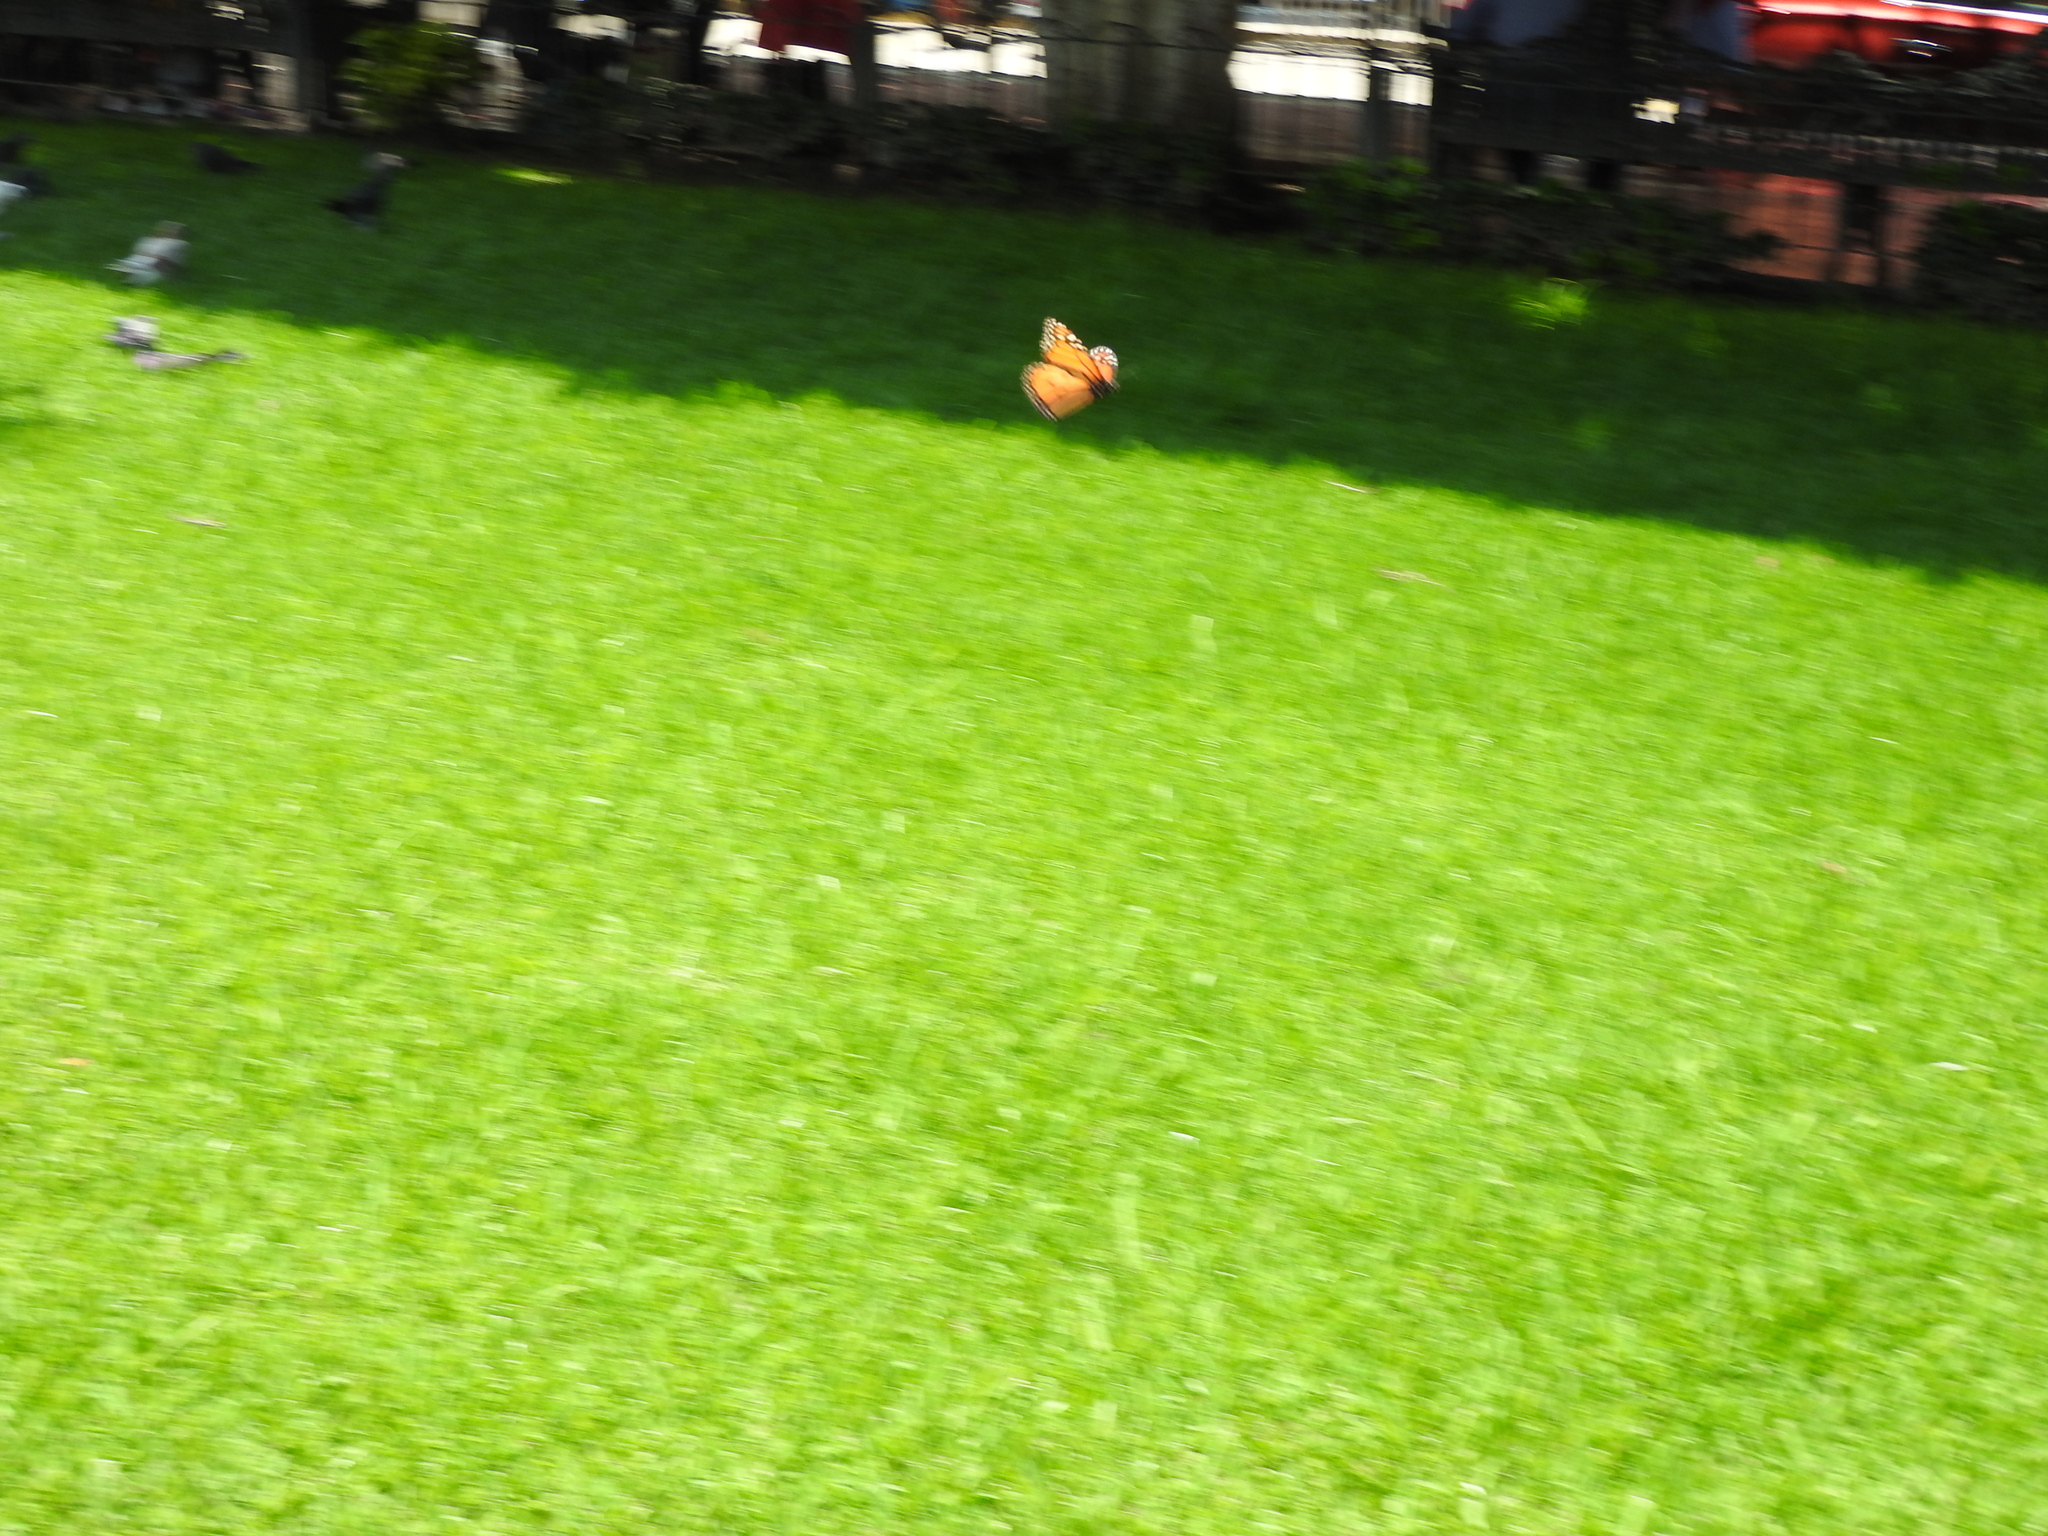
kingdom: Animalia
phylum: Arthropoda
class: Insecta
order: Lepidoptera
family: Nymphalidae
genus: Danaus
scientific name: Danaus plexippus
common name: Monarch
